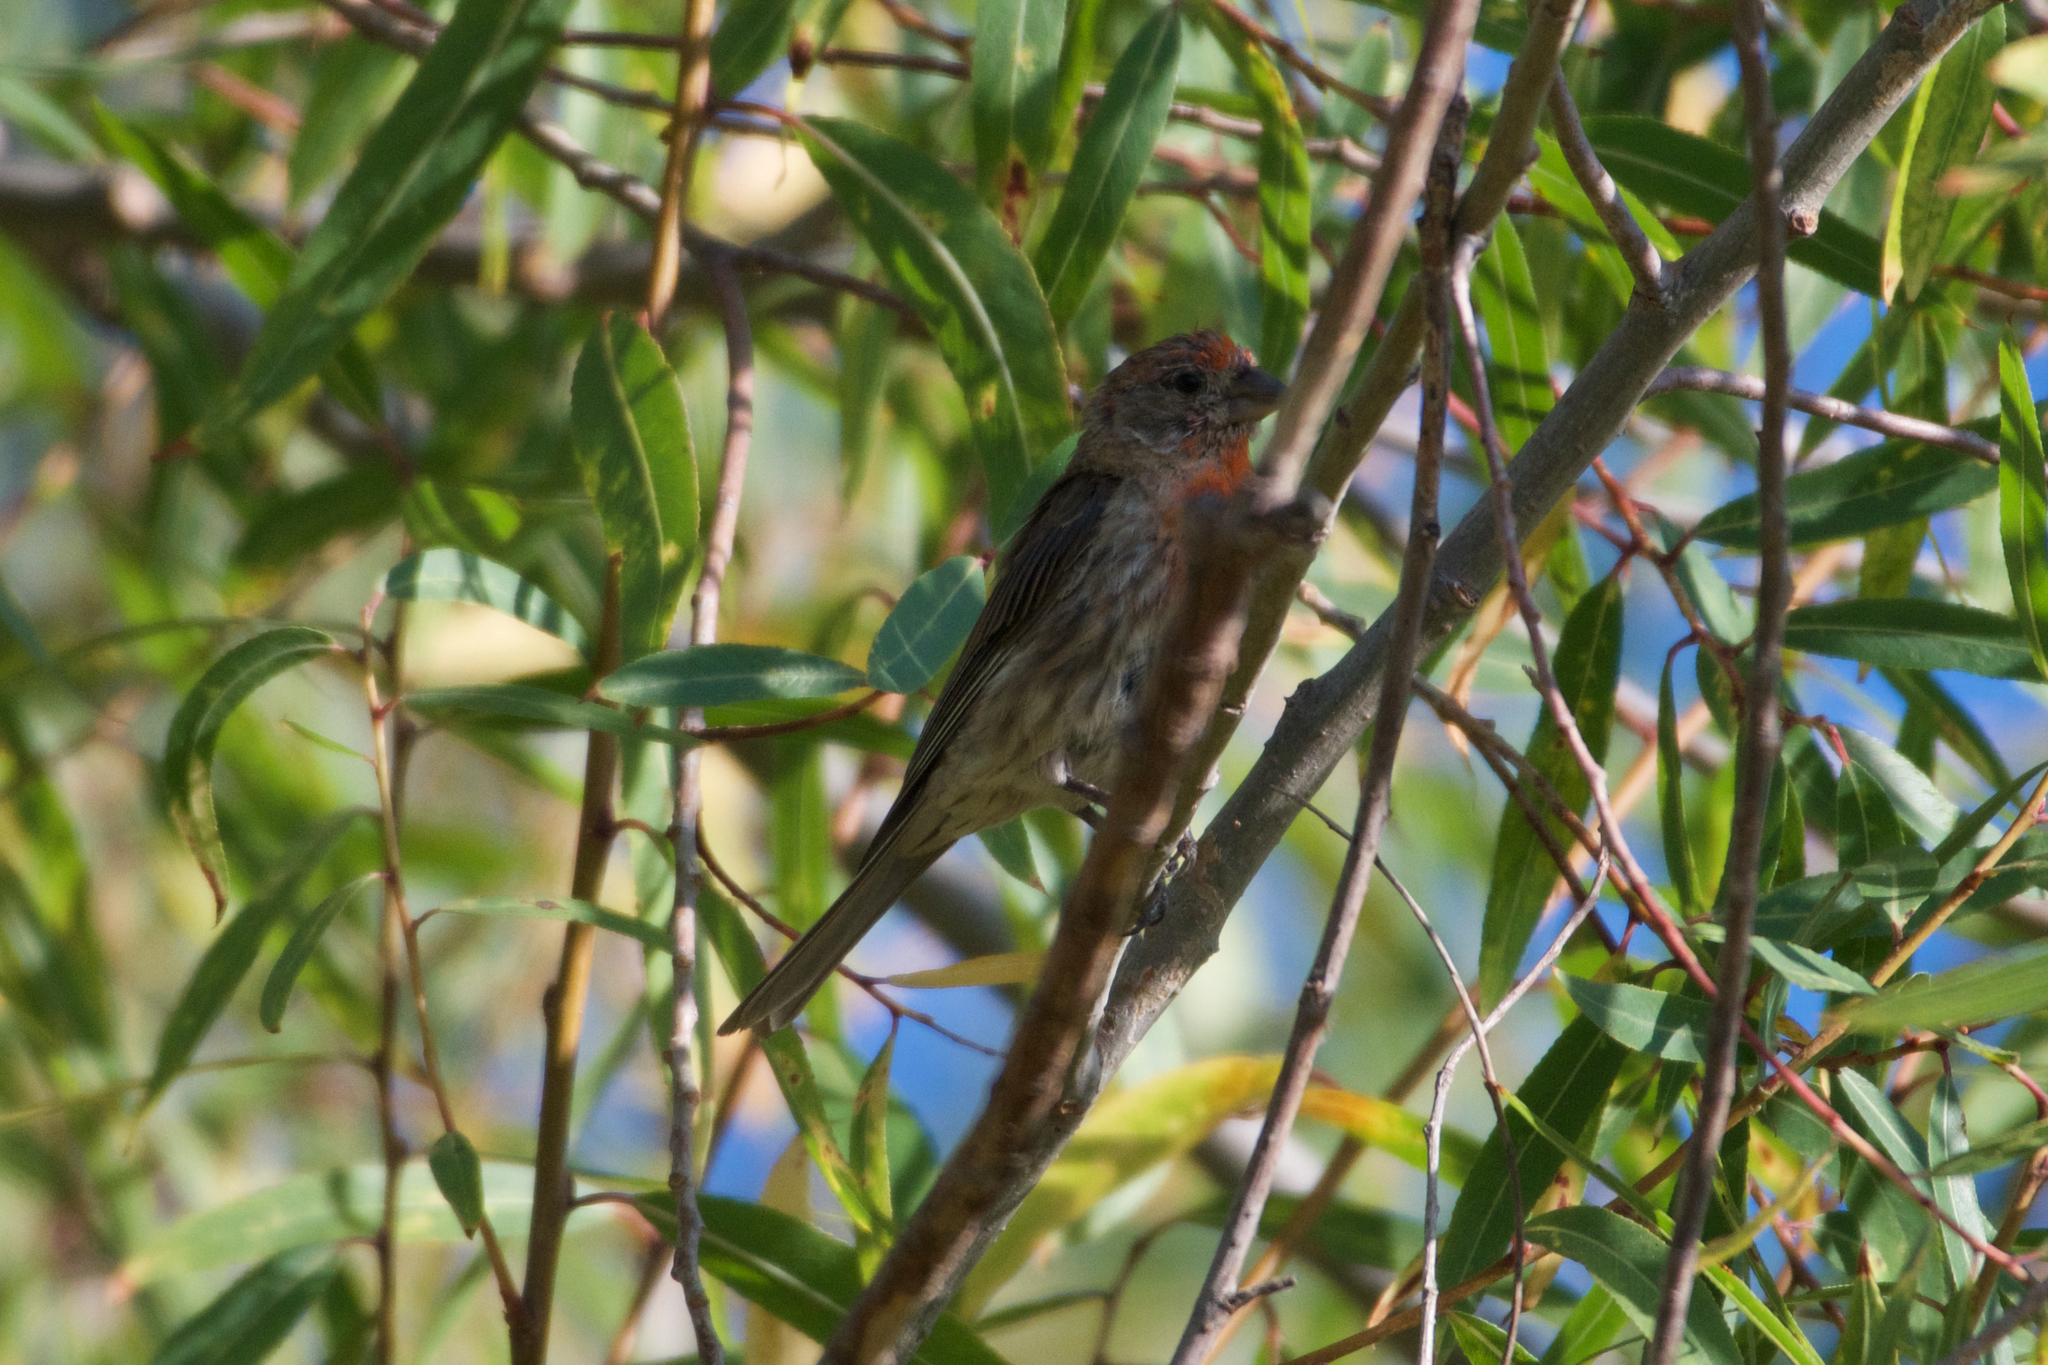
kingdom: Animalia
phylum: Chordata
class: Aves
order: Passeriformes
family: Fringillidae
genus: Haemorhous
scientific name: Haemorhous mexicanus
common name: House finch
